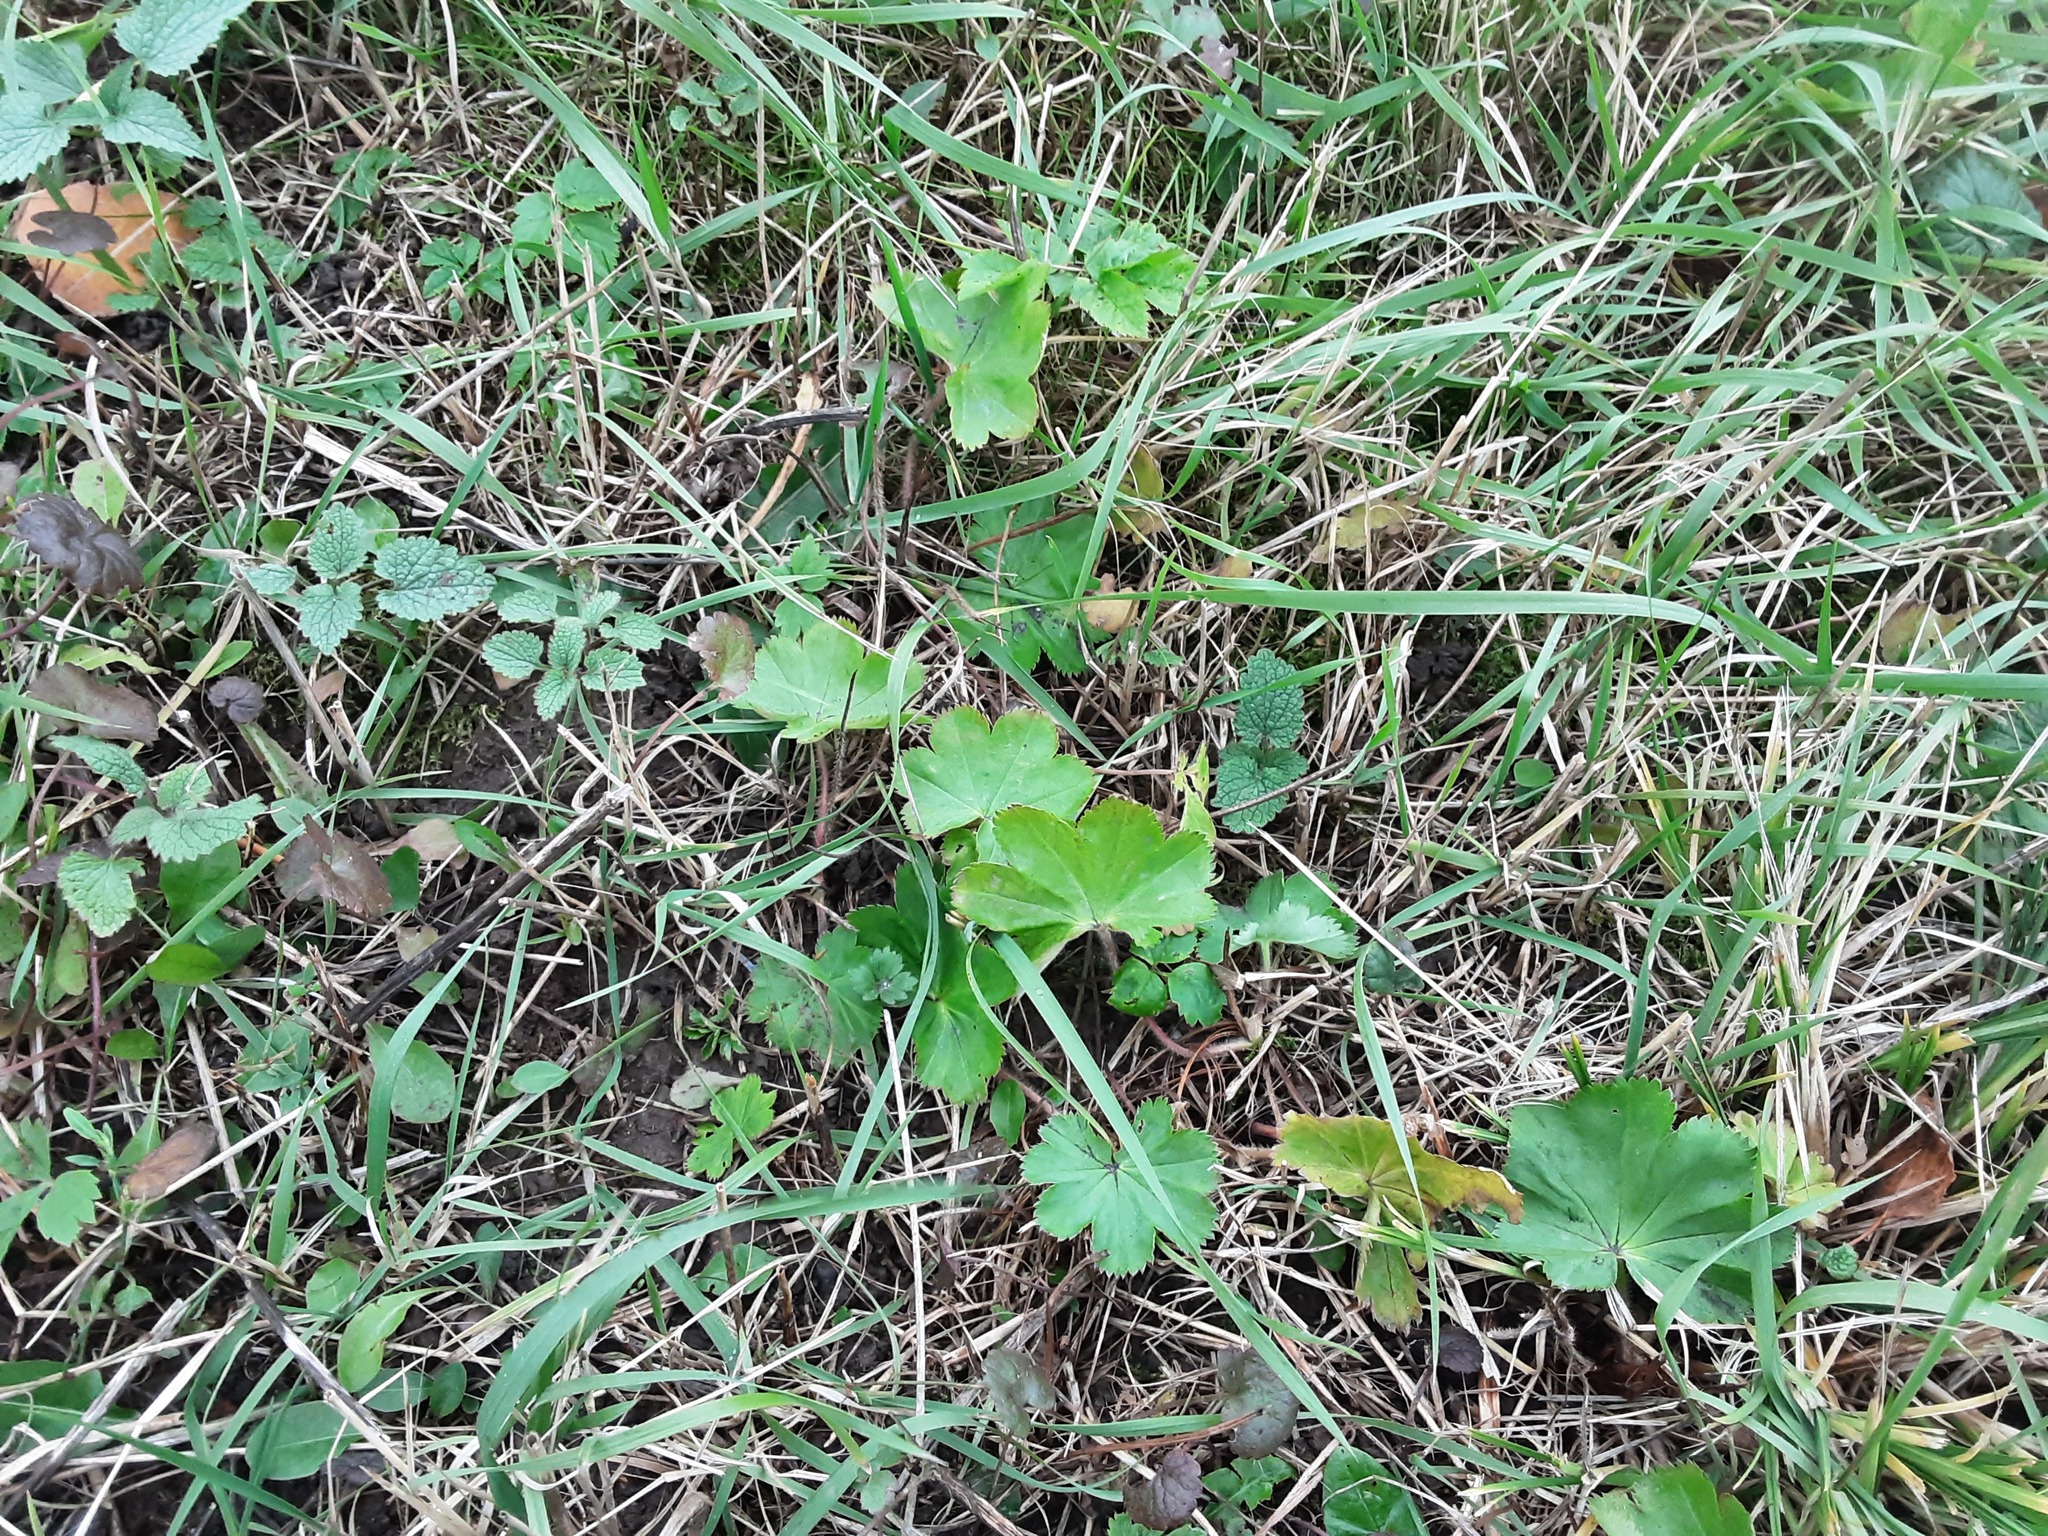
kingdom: Plantae
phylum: Tracheophyta
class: Magnoliopsida
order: Rosales
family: Rosaceae
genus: Alchemilla
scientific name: Alchemilla
